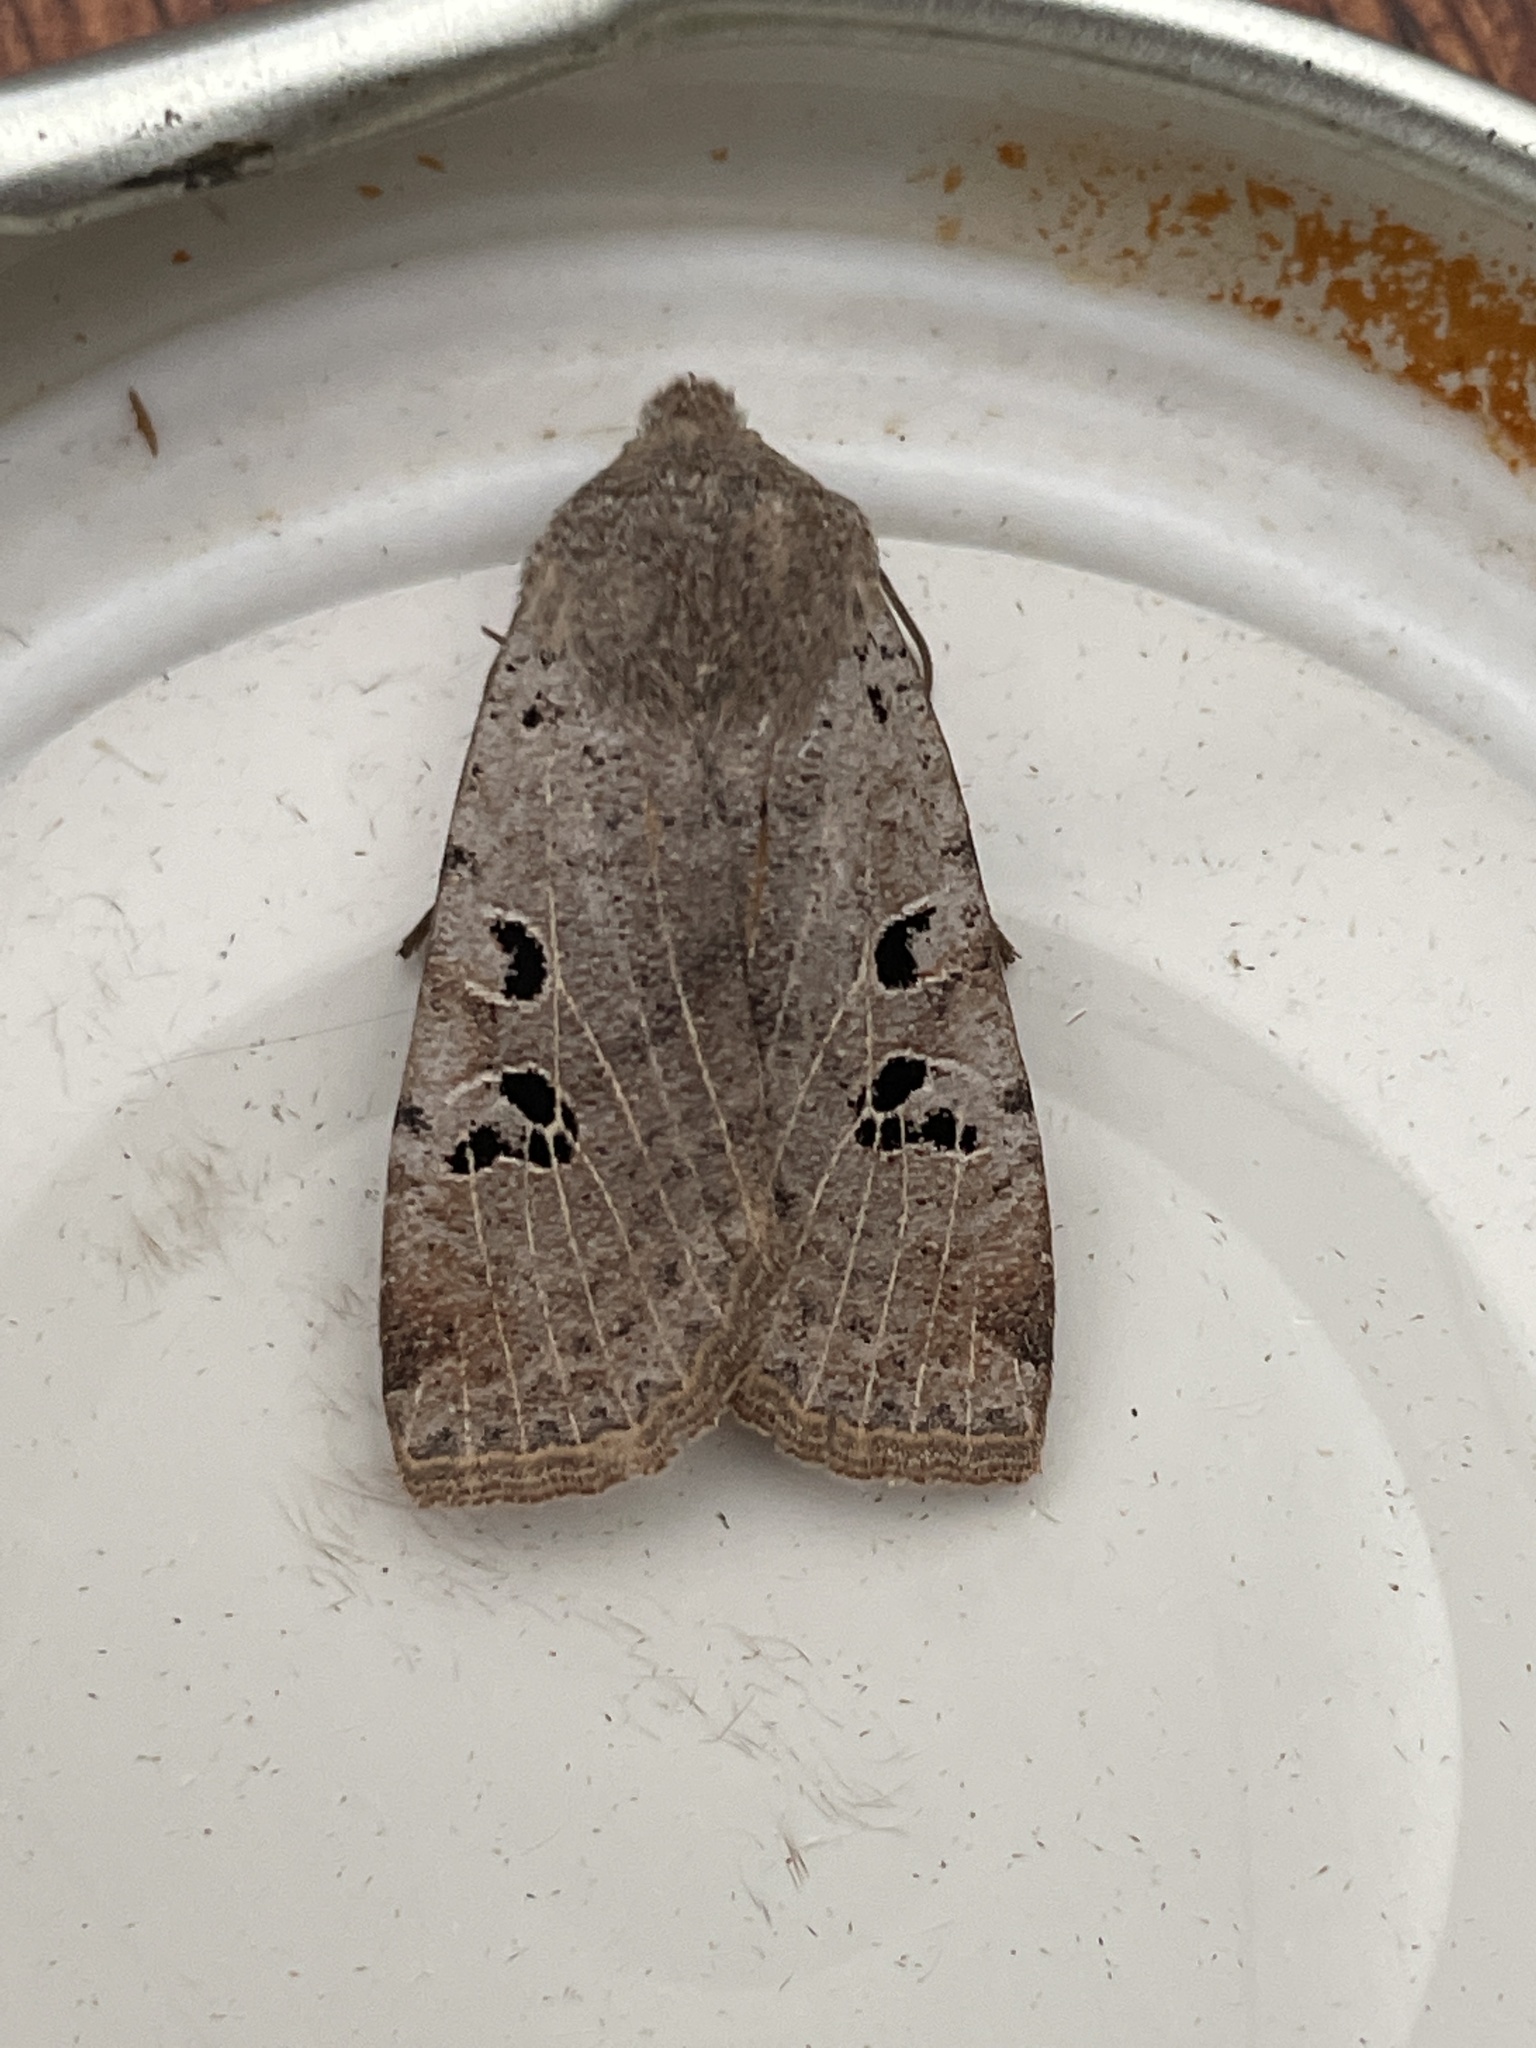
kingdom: Animalia
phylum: Arthropoda
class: Insecta
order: Lepidoptera
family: Noctuidae
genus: Conistra
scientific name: Conistra rubiginosa
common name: Black-spotted chestnut
